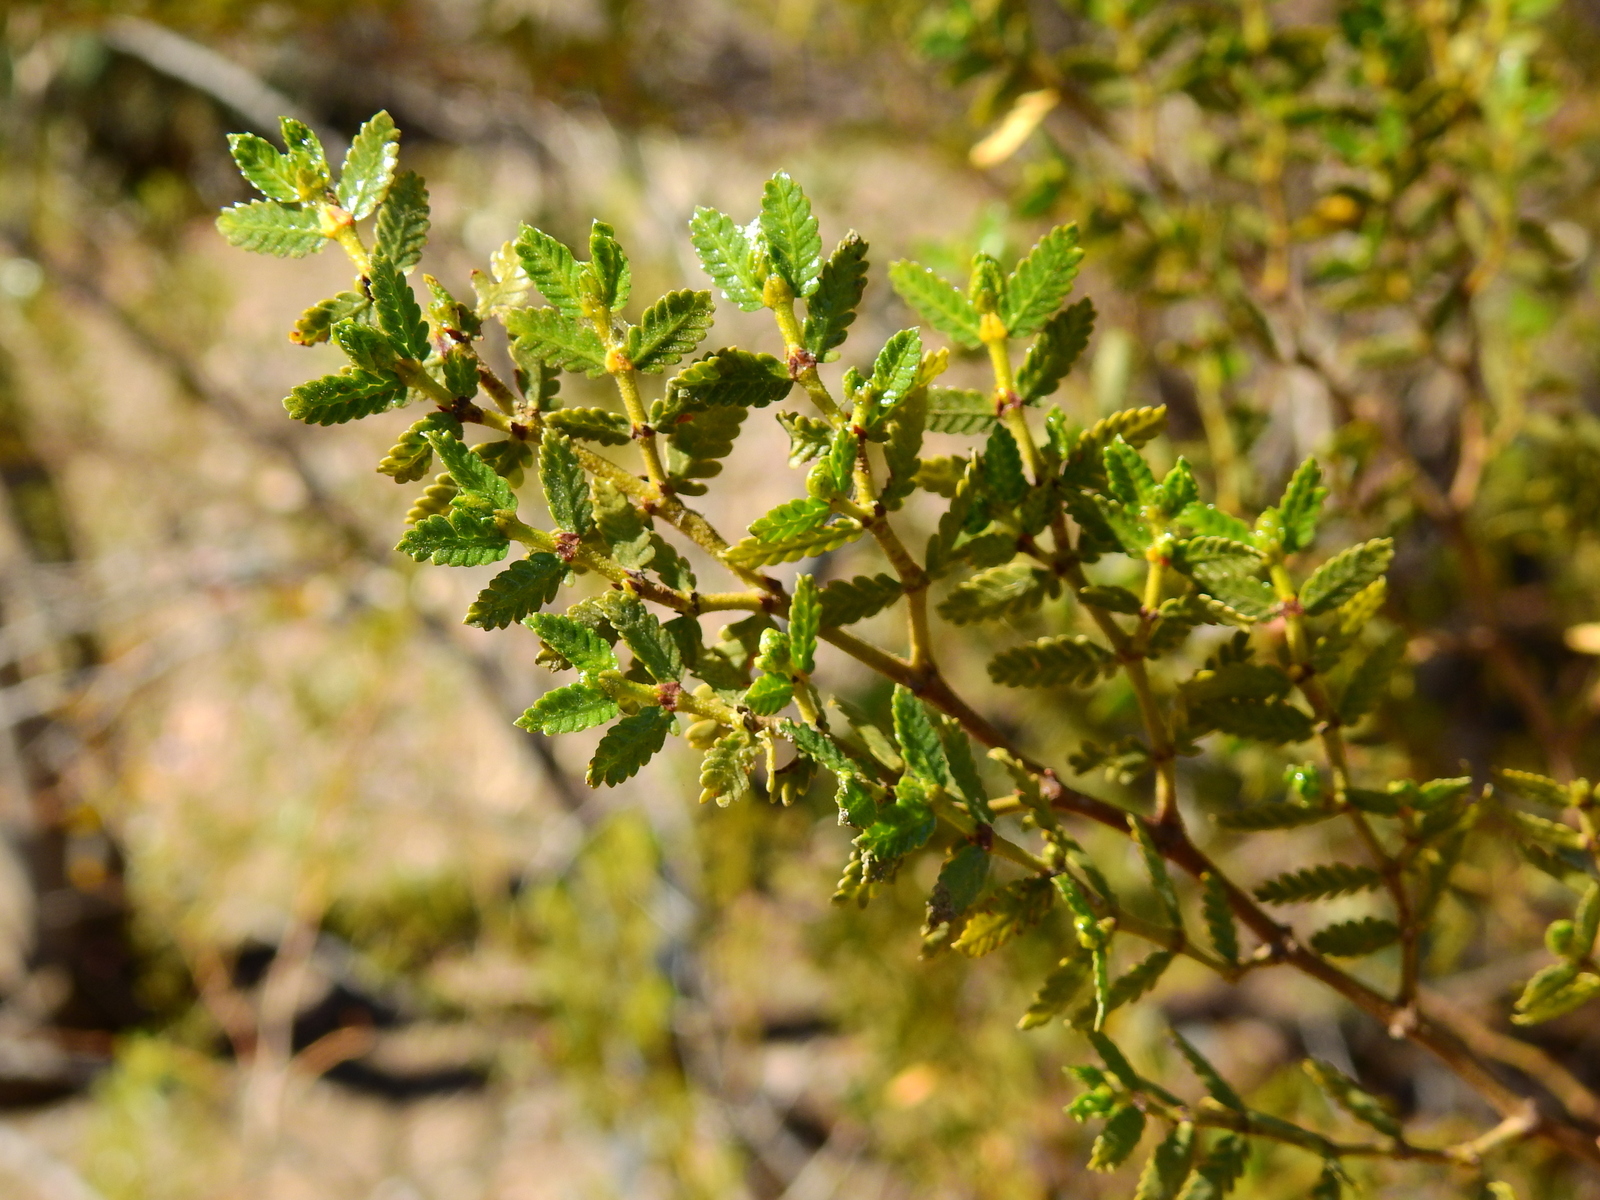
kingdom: Plantae
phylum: Tracheophyta
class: Magnoliopsida
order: Zygophyllales
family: Zygophyllaceae
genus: Larrea
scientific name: Larrea nitida
